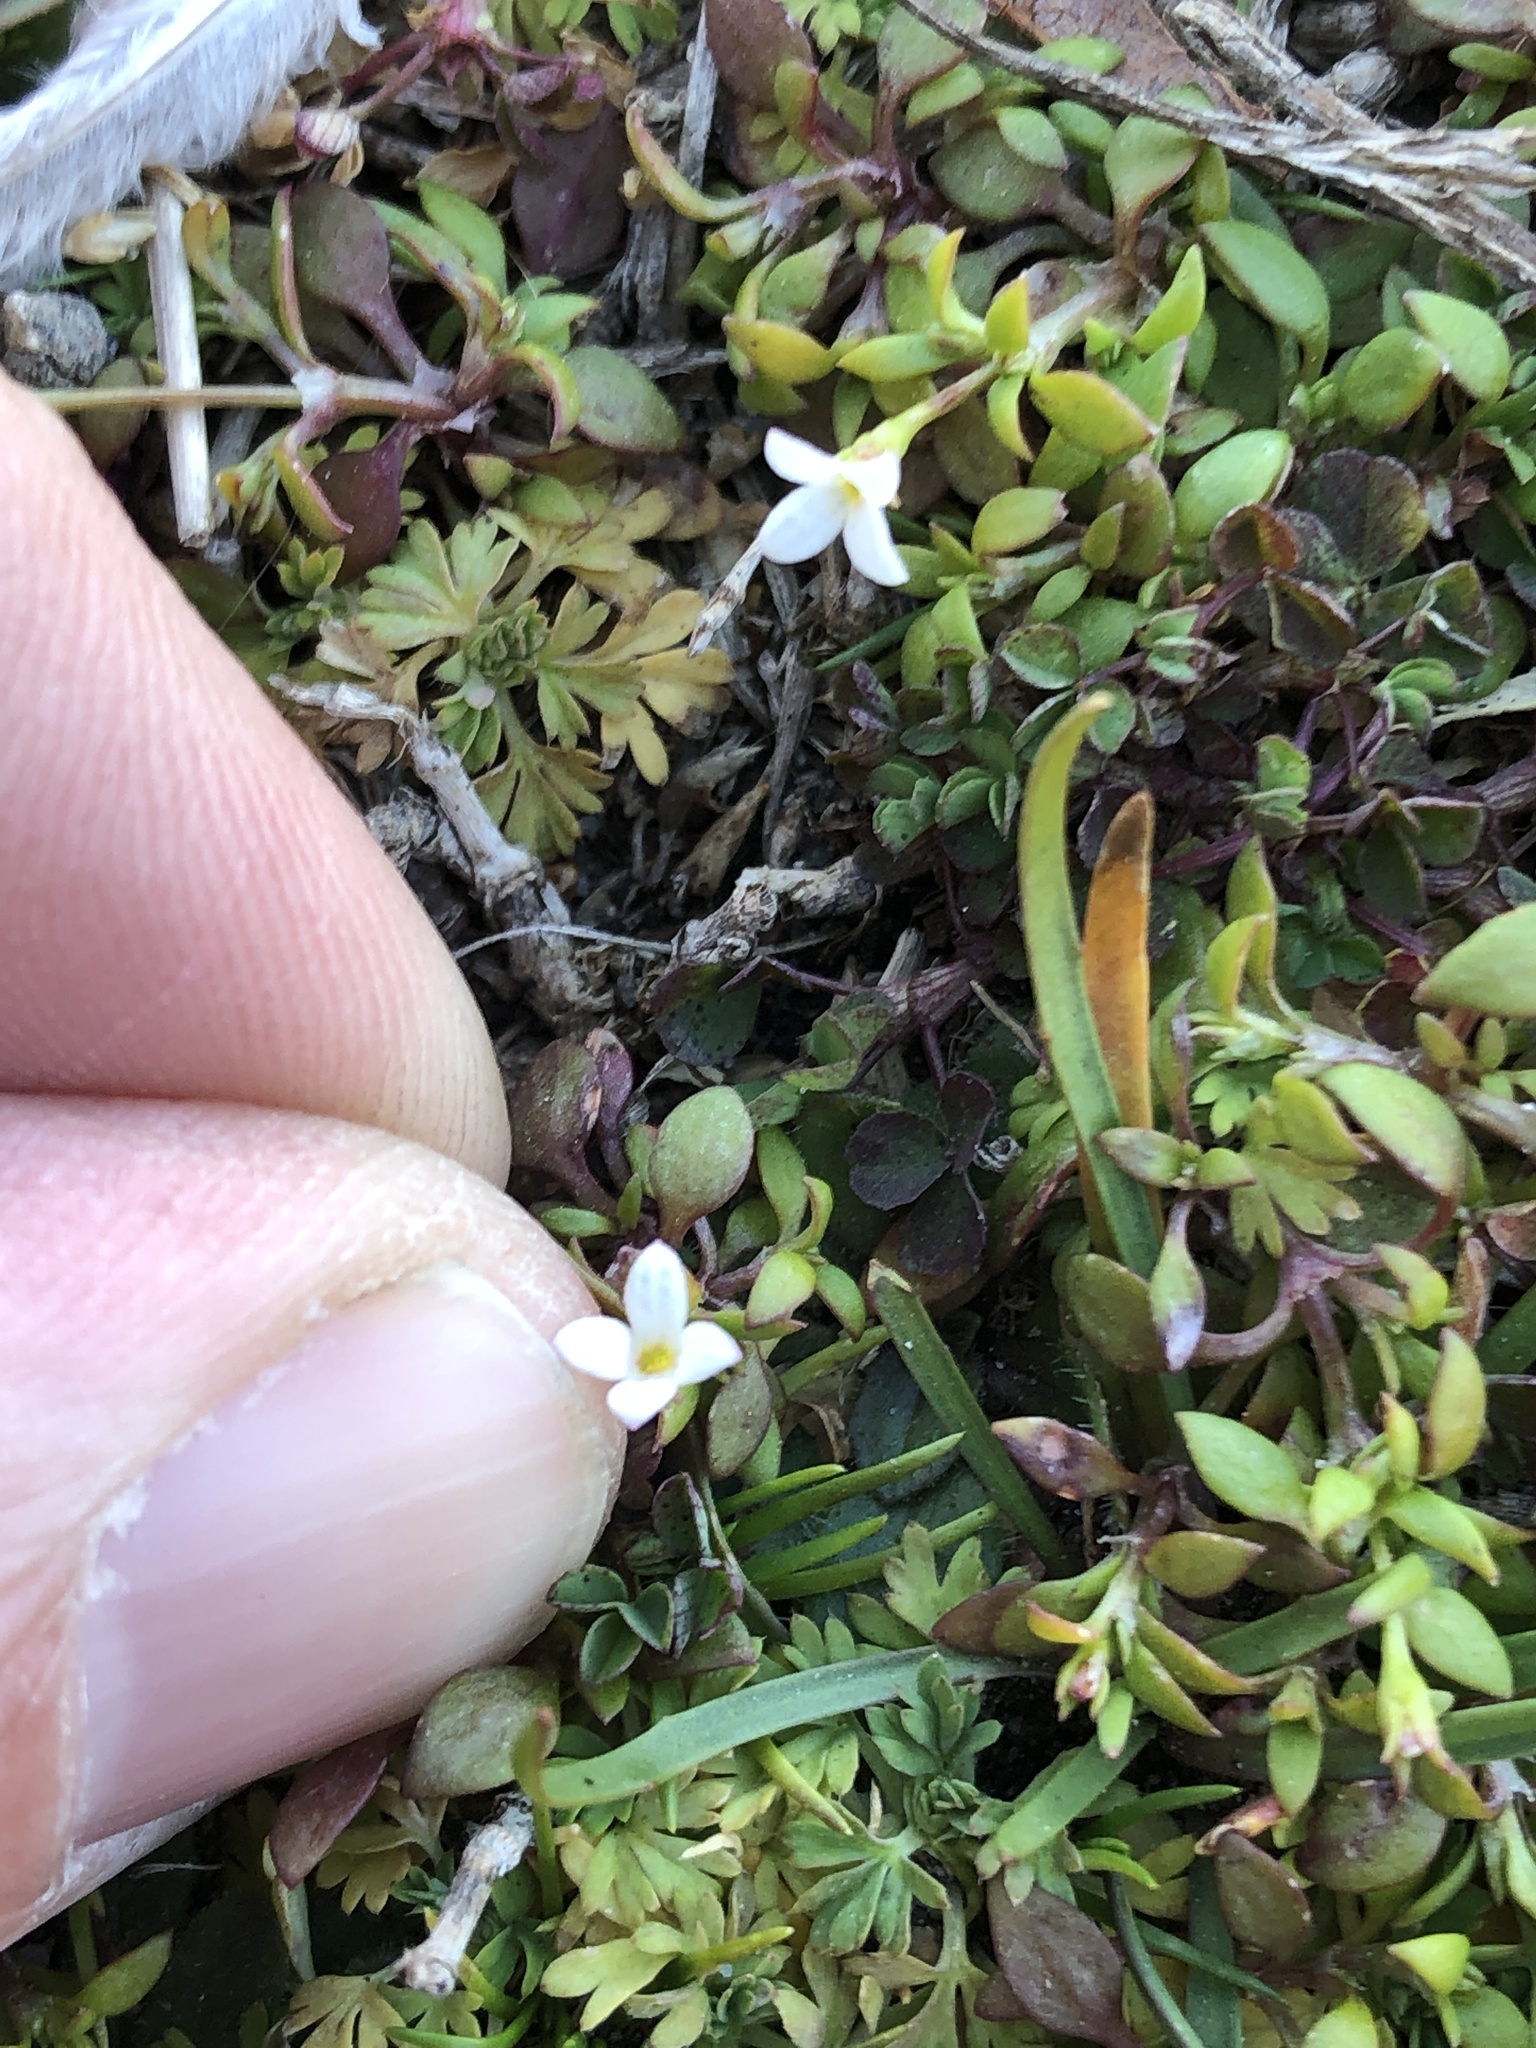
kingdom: Plantae
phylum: Tracheophyta
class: Magnoliopsida
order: Gentianales
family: Rubiaceae
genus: Houstonia
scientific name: Houstonia micrantha
